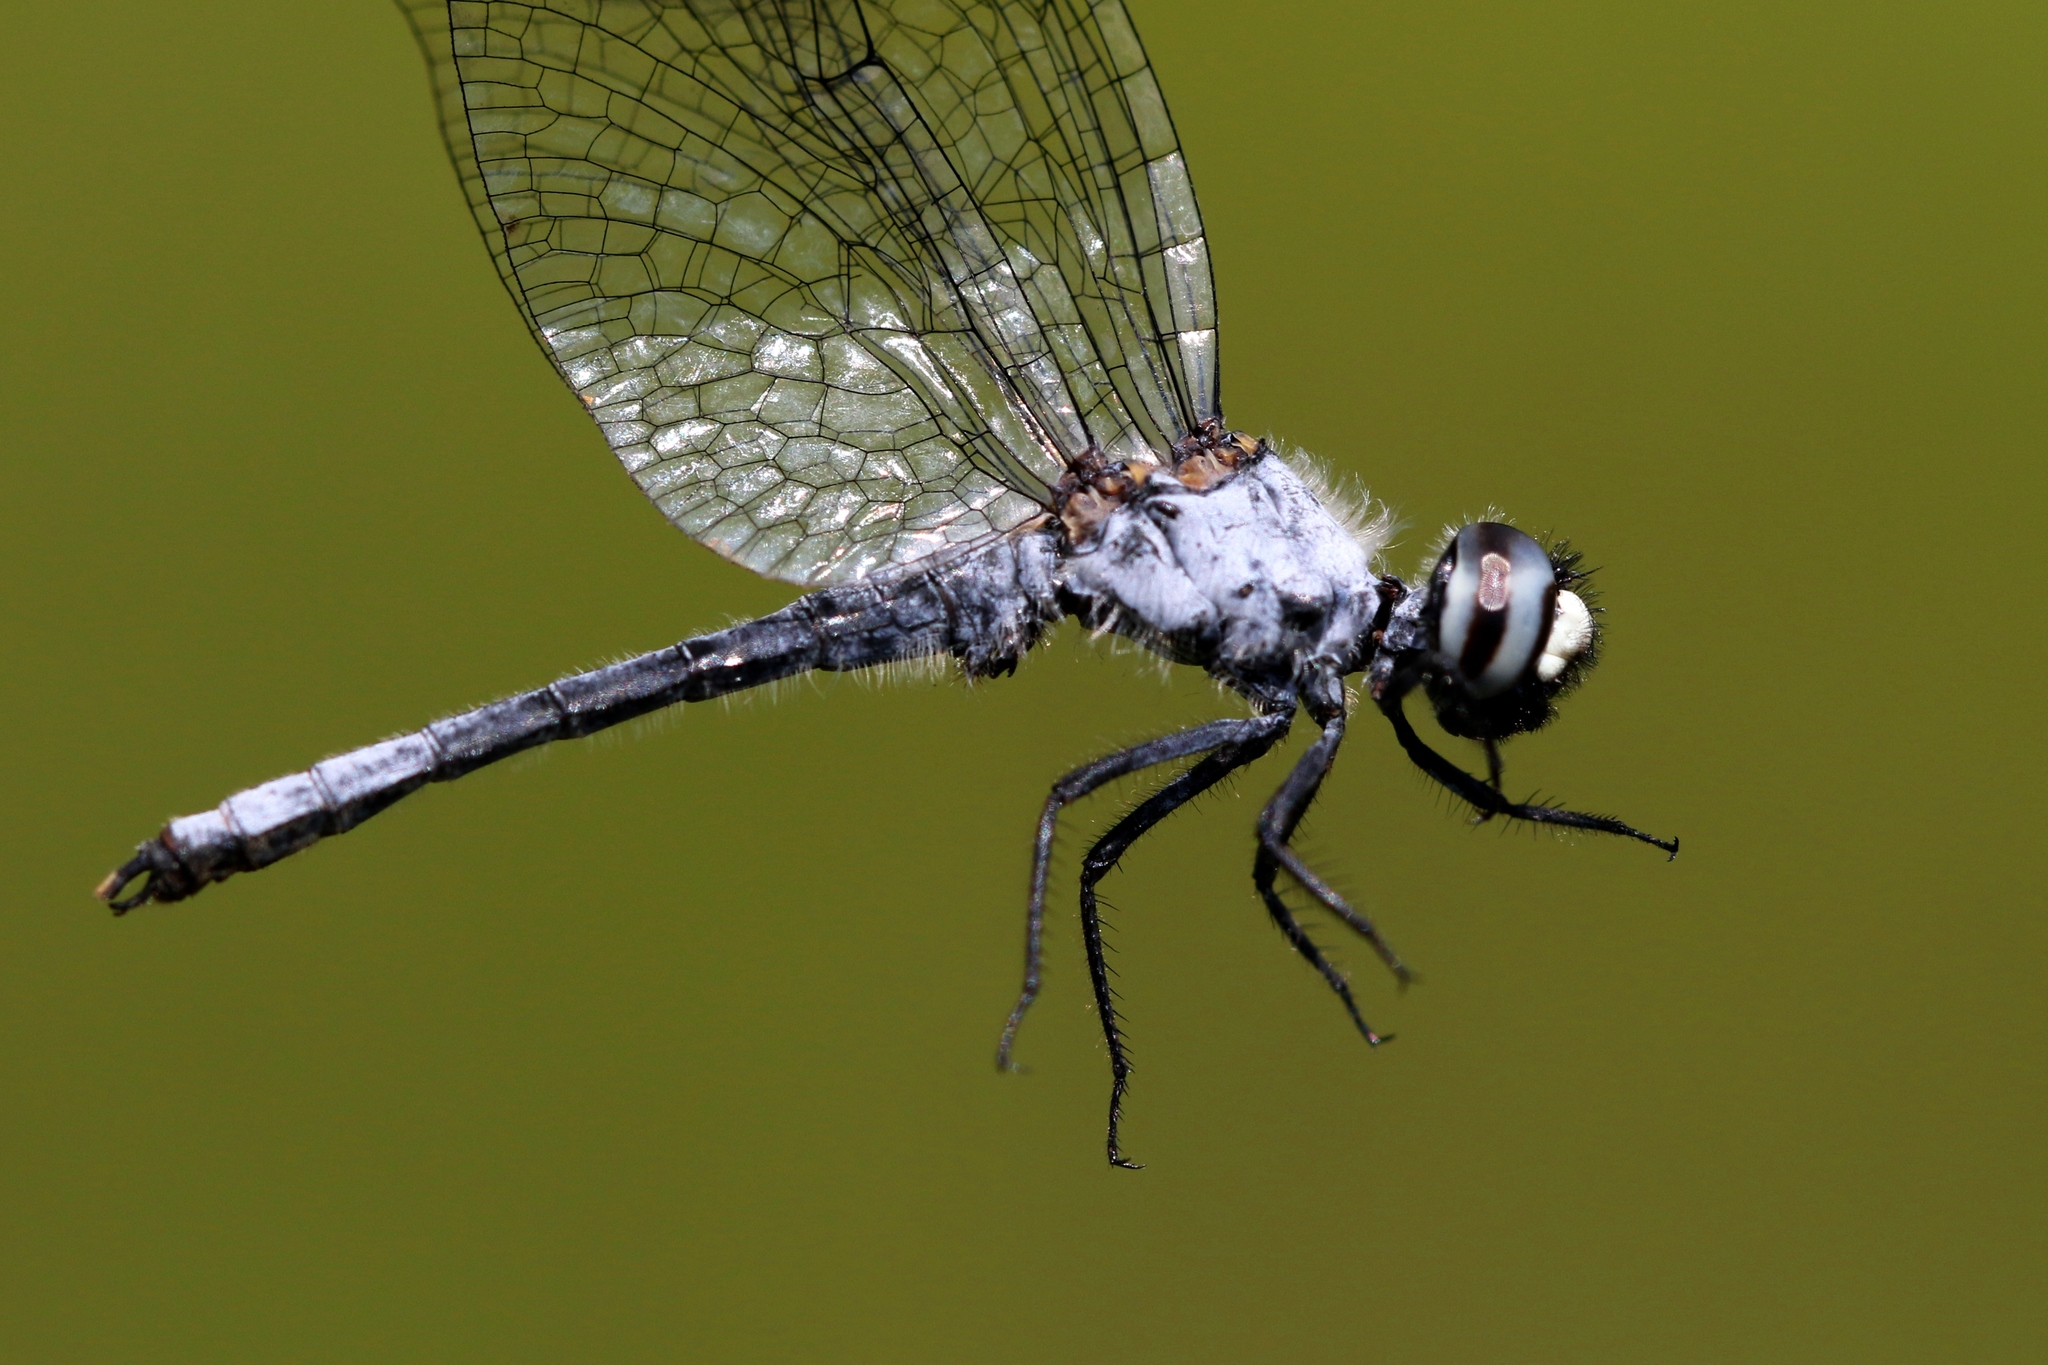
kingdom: Animalia
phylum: Arthropoda
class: Insecta
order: Odonata
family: Libellulidae
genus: Nannothemis
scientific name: Nannothemis bella
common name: Elfin skimmer
